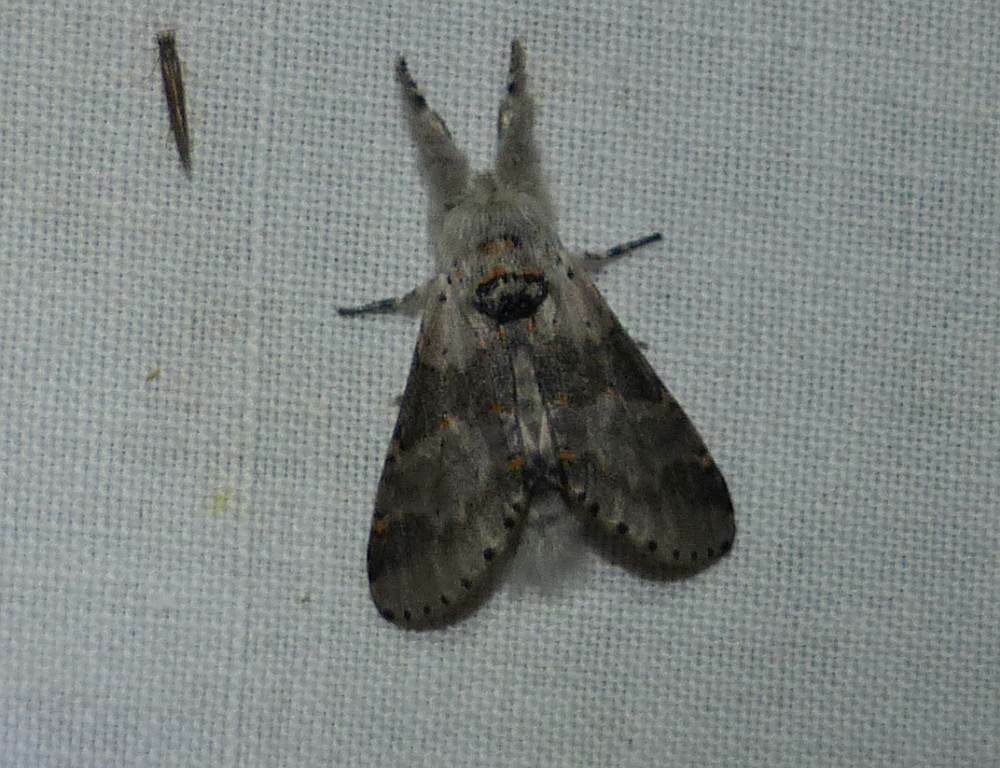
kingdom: Animalia
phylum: Arthropoda
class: Insecta
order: Lepidoptera
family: Notodontidae
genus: Furcula
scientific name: Furcula cinerea
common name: Gray furcula
